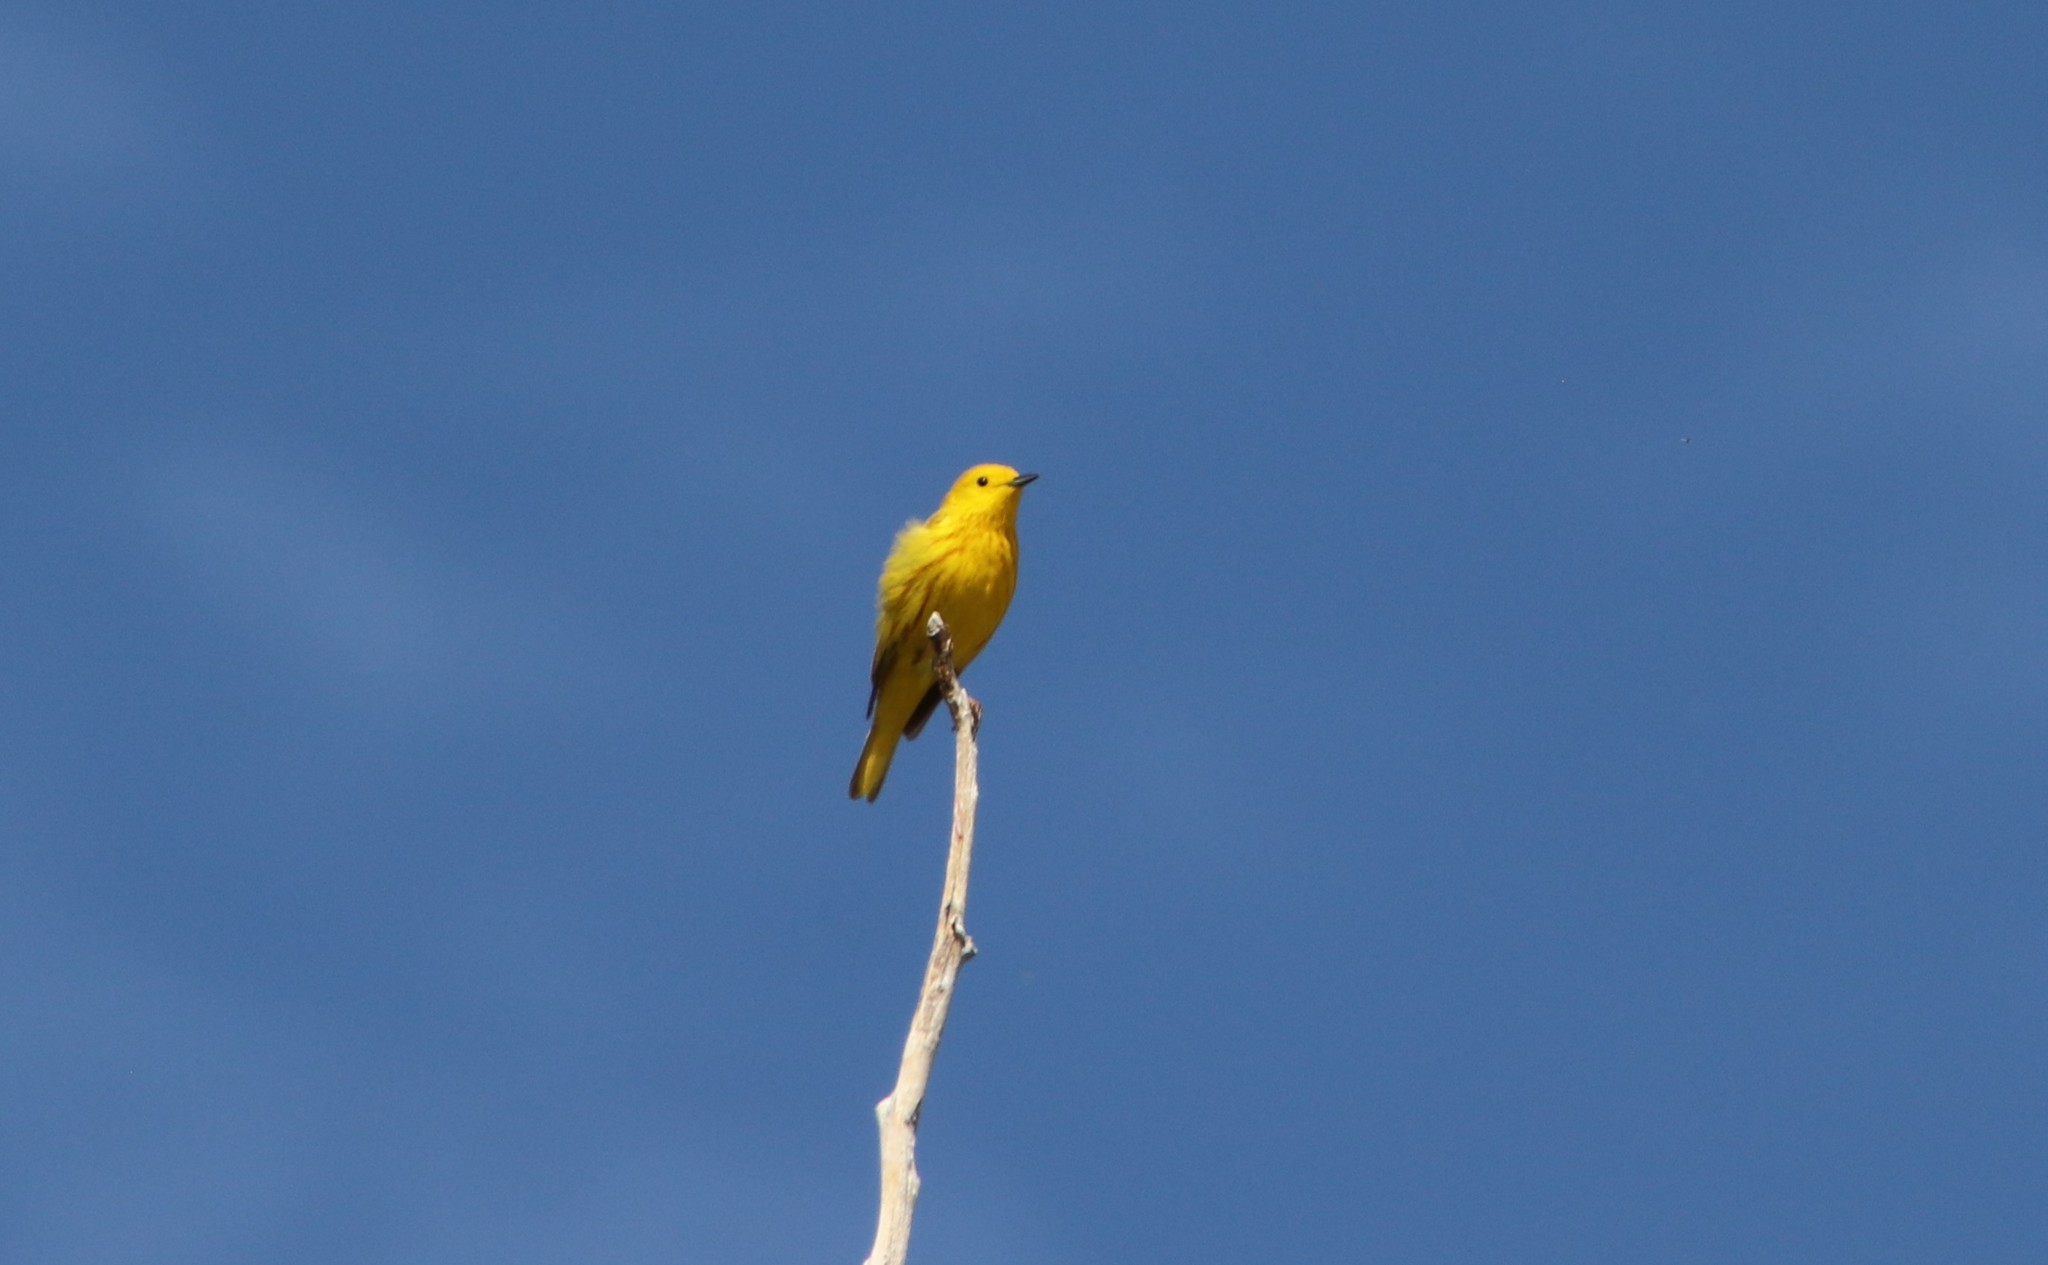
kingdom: Animalia
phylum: Chordata
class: Aves
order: Passeriformes
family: Parulidae
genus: Setophaga
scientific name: Setophaga petechia
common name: Yellow warbler
